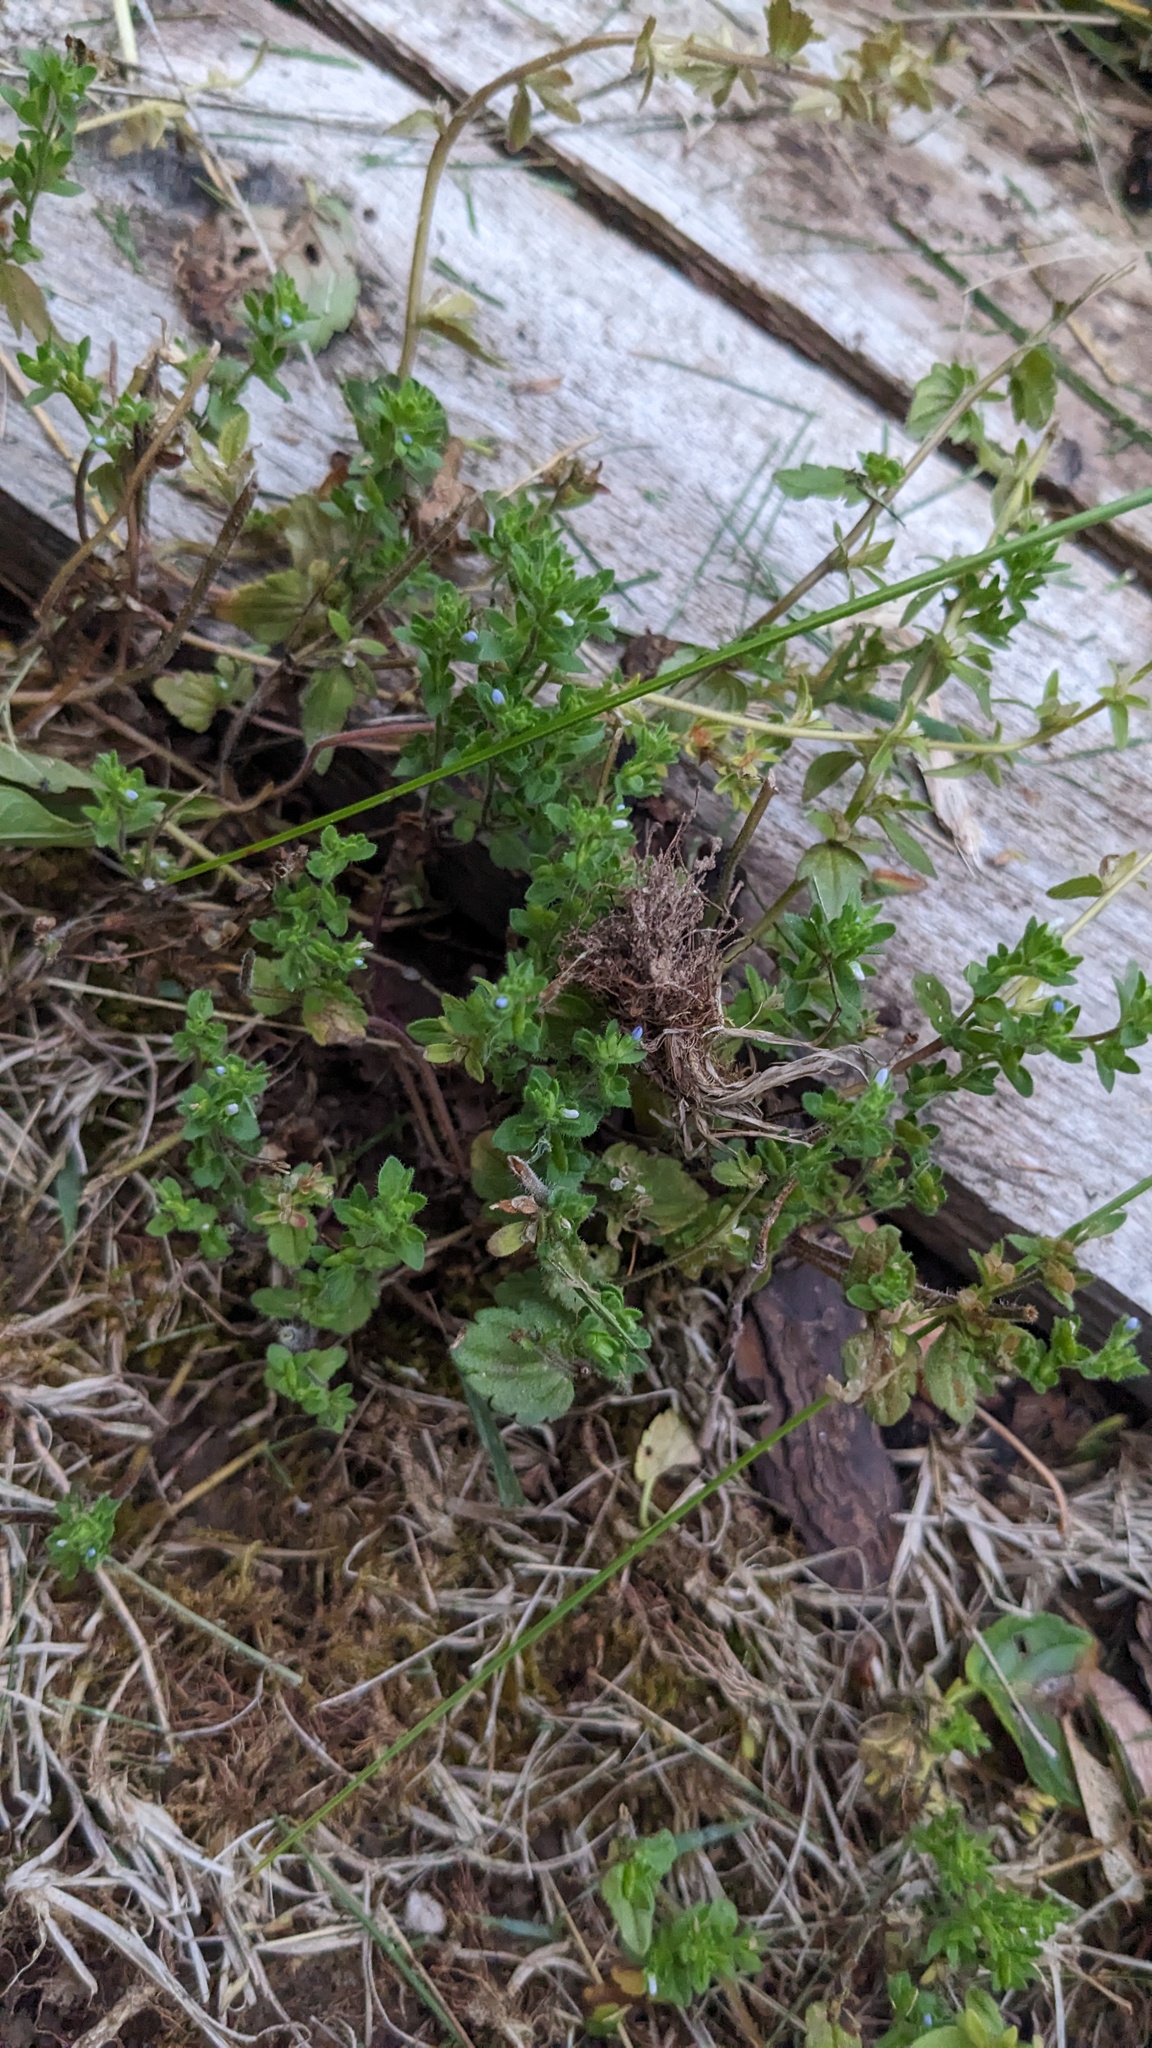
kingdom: Plantae
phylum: Tracheophyta
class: Magnoliopsida
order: Lamiales
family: Plantaginaceae
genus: Veronica
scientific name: Veronica arvensis
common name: Corn speedwell
